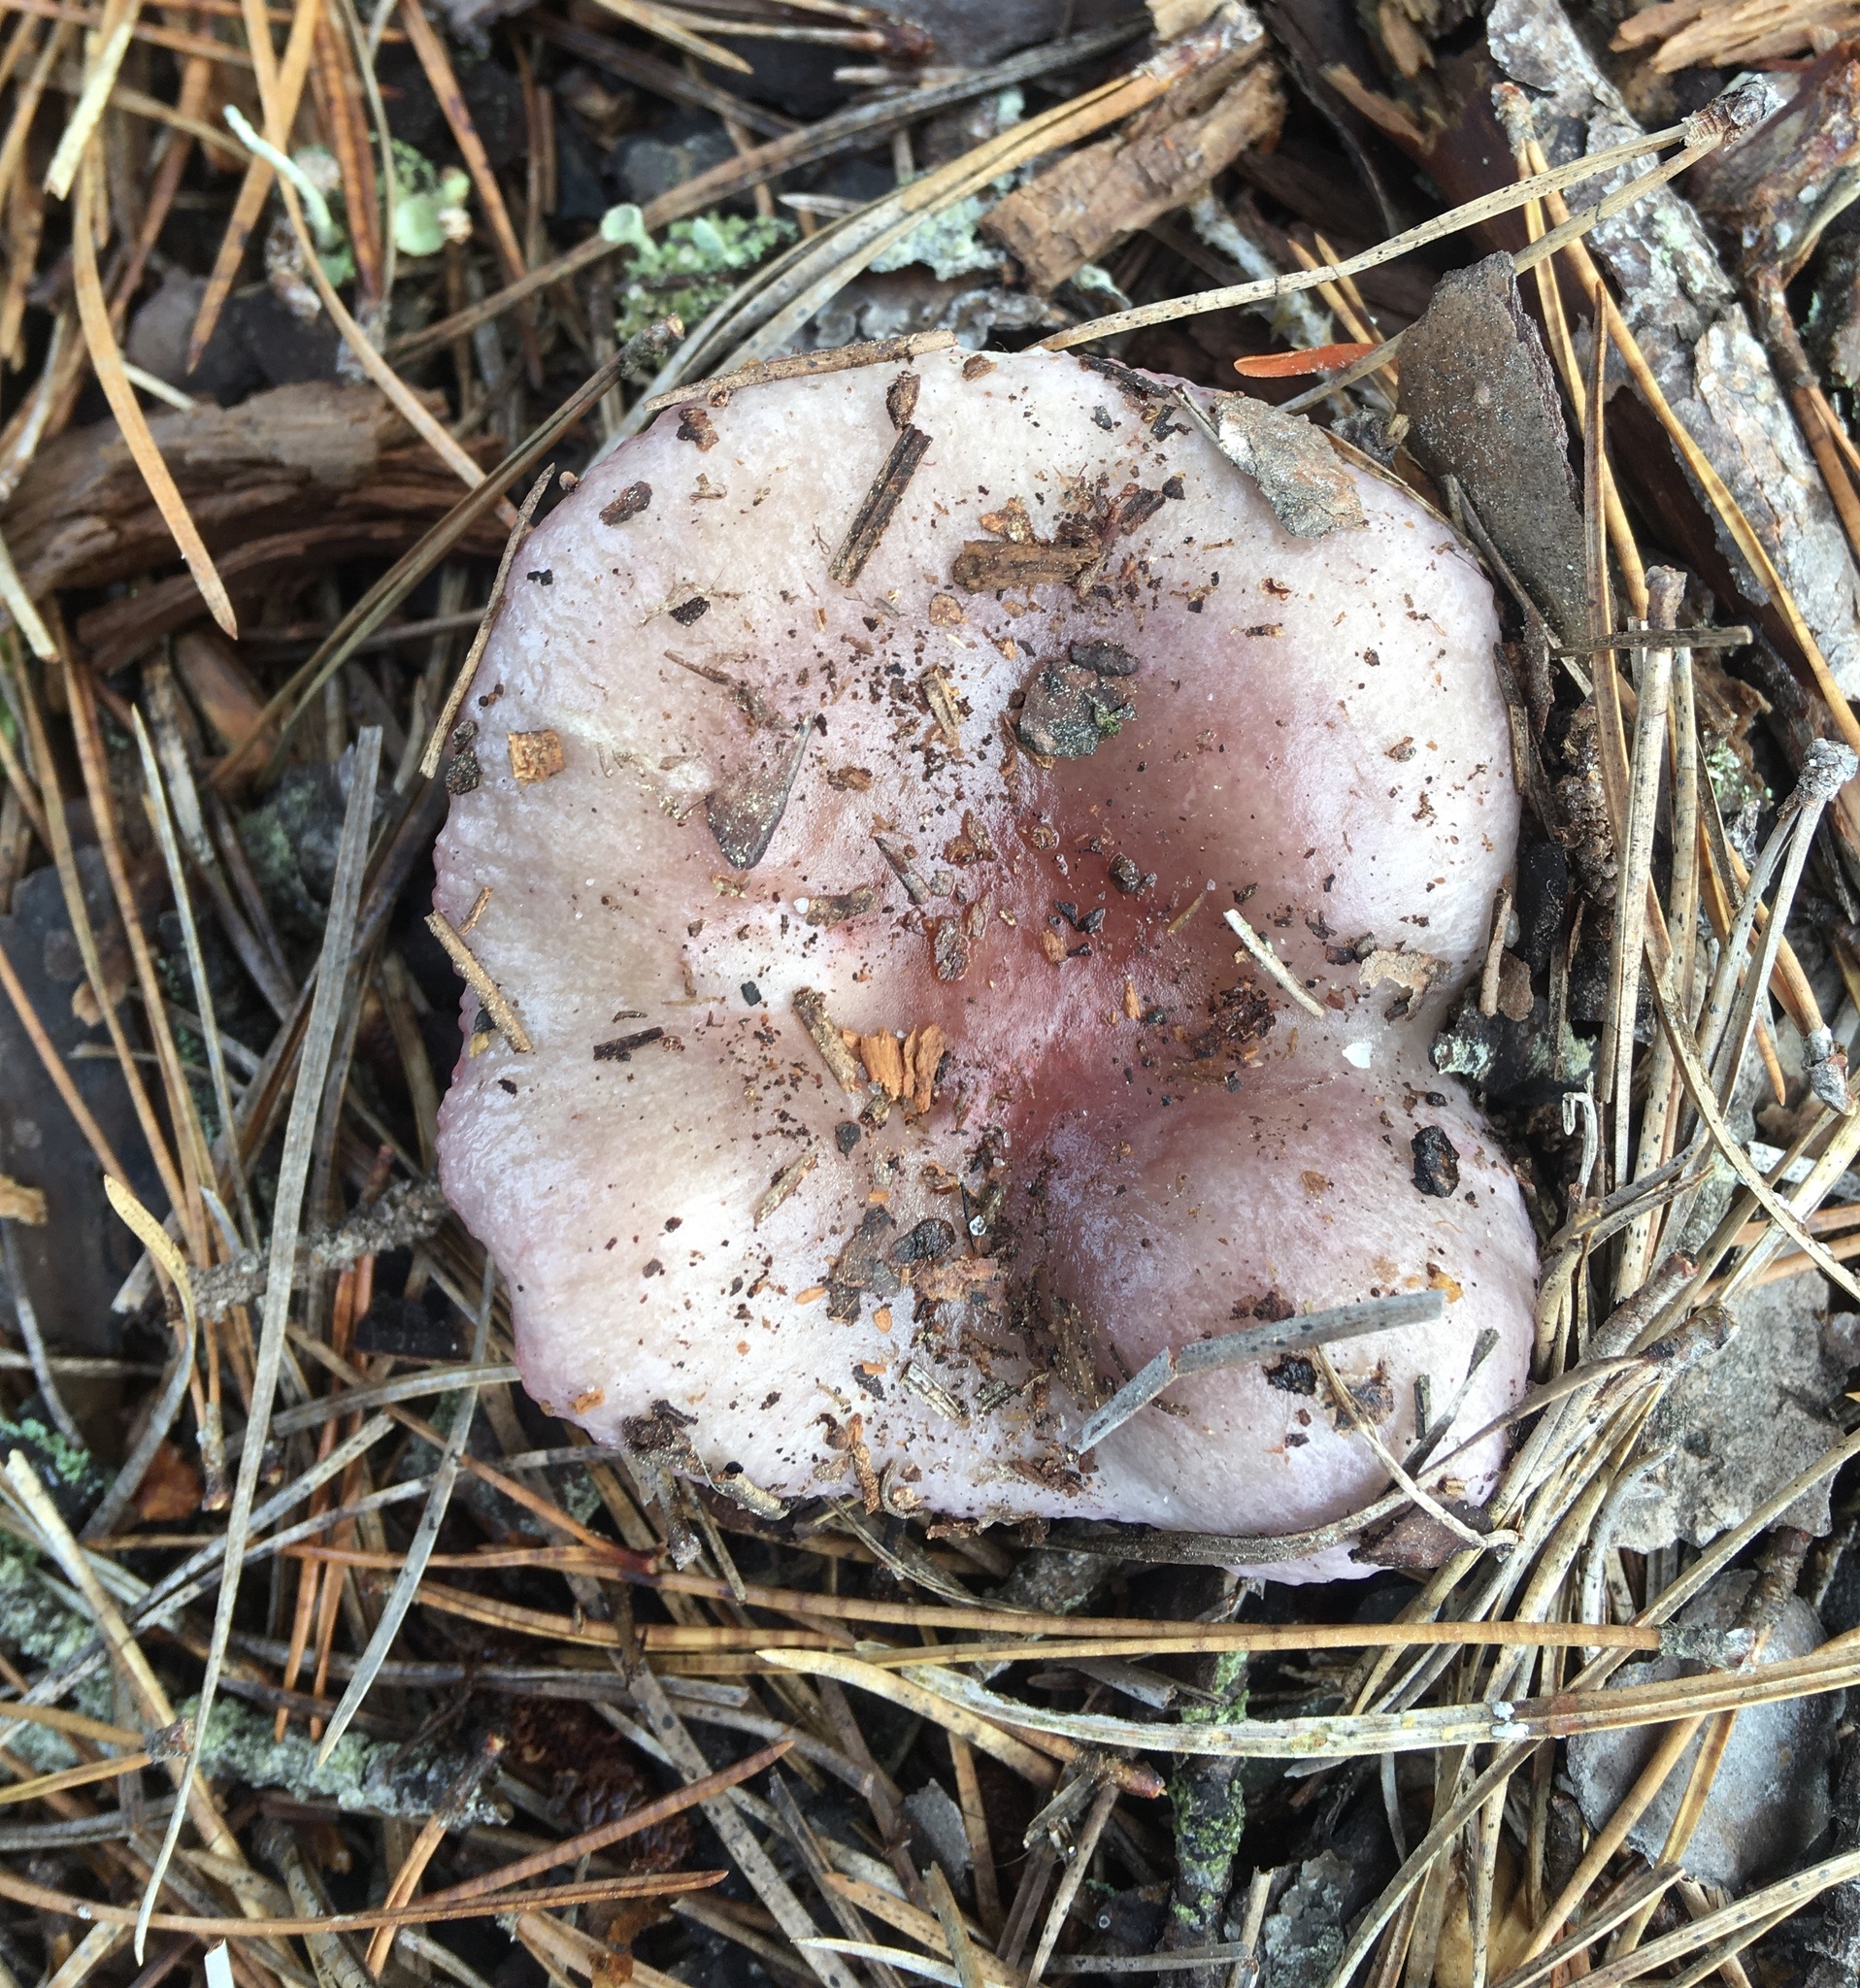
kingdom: Fungi
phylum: Basidiomycota
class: Agaricomycetes
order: Russulales
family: Russulaceae
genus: Russula
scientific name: Russula sericeonitens
